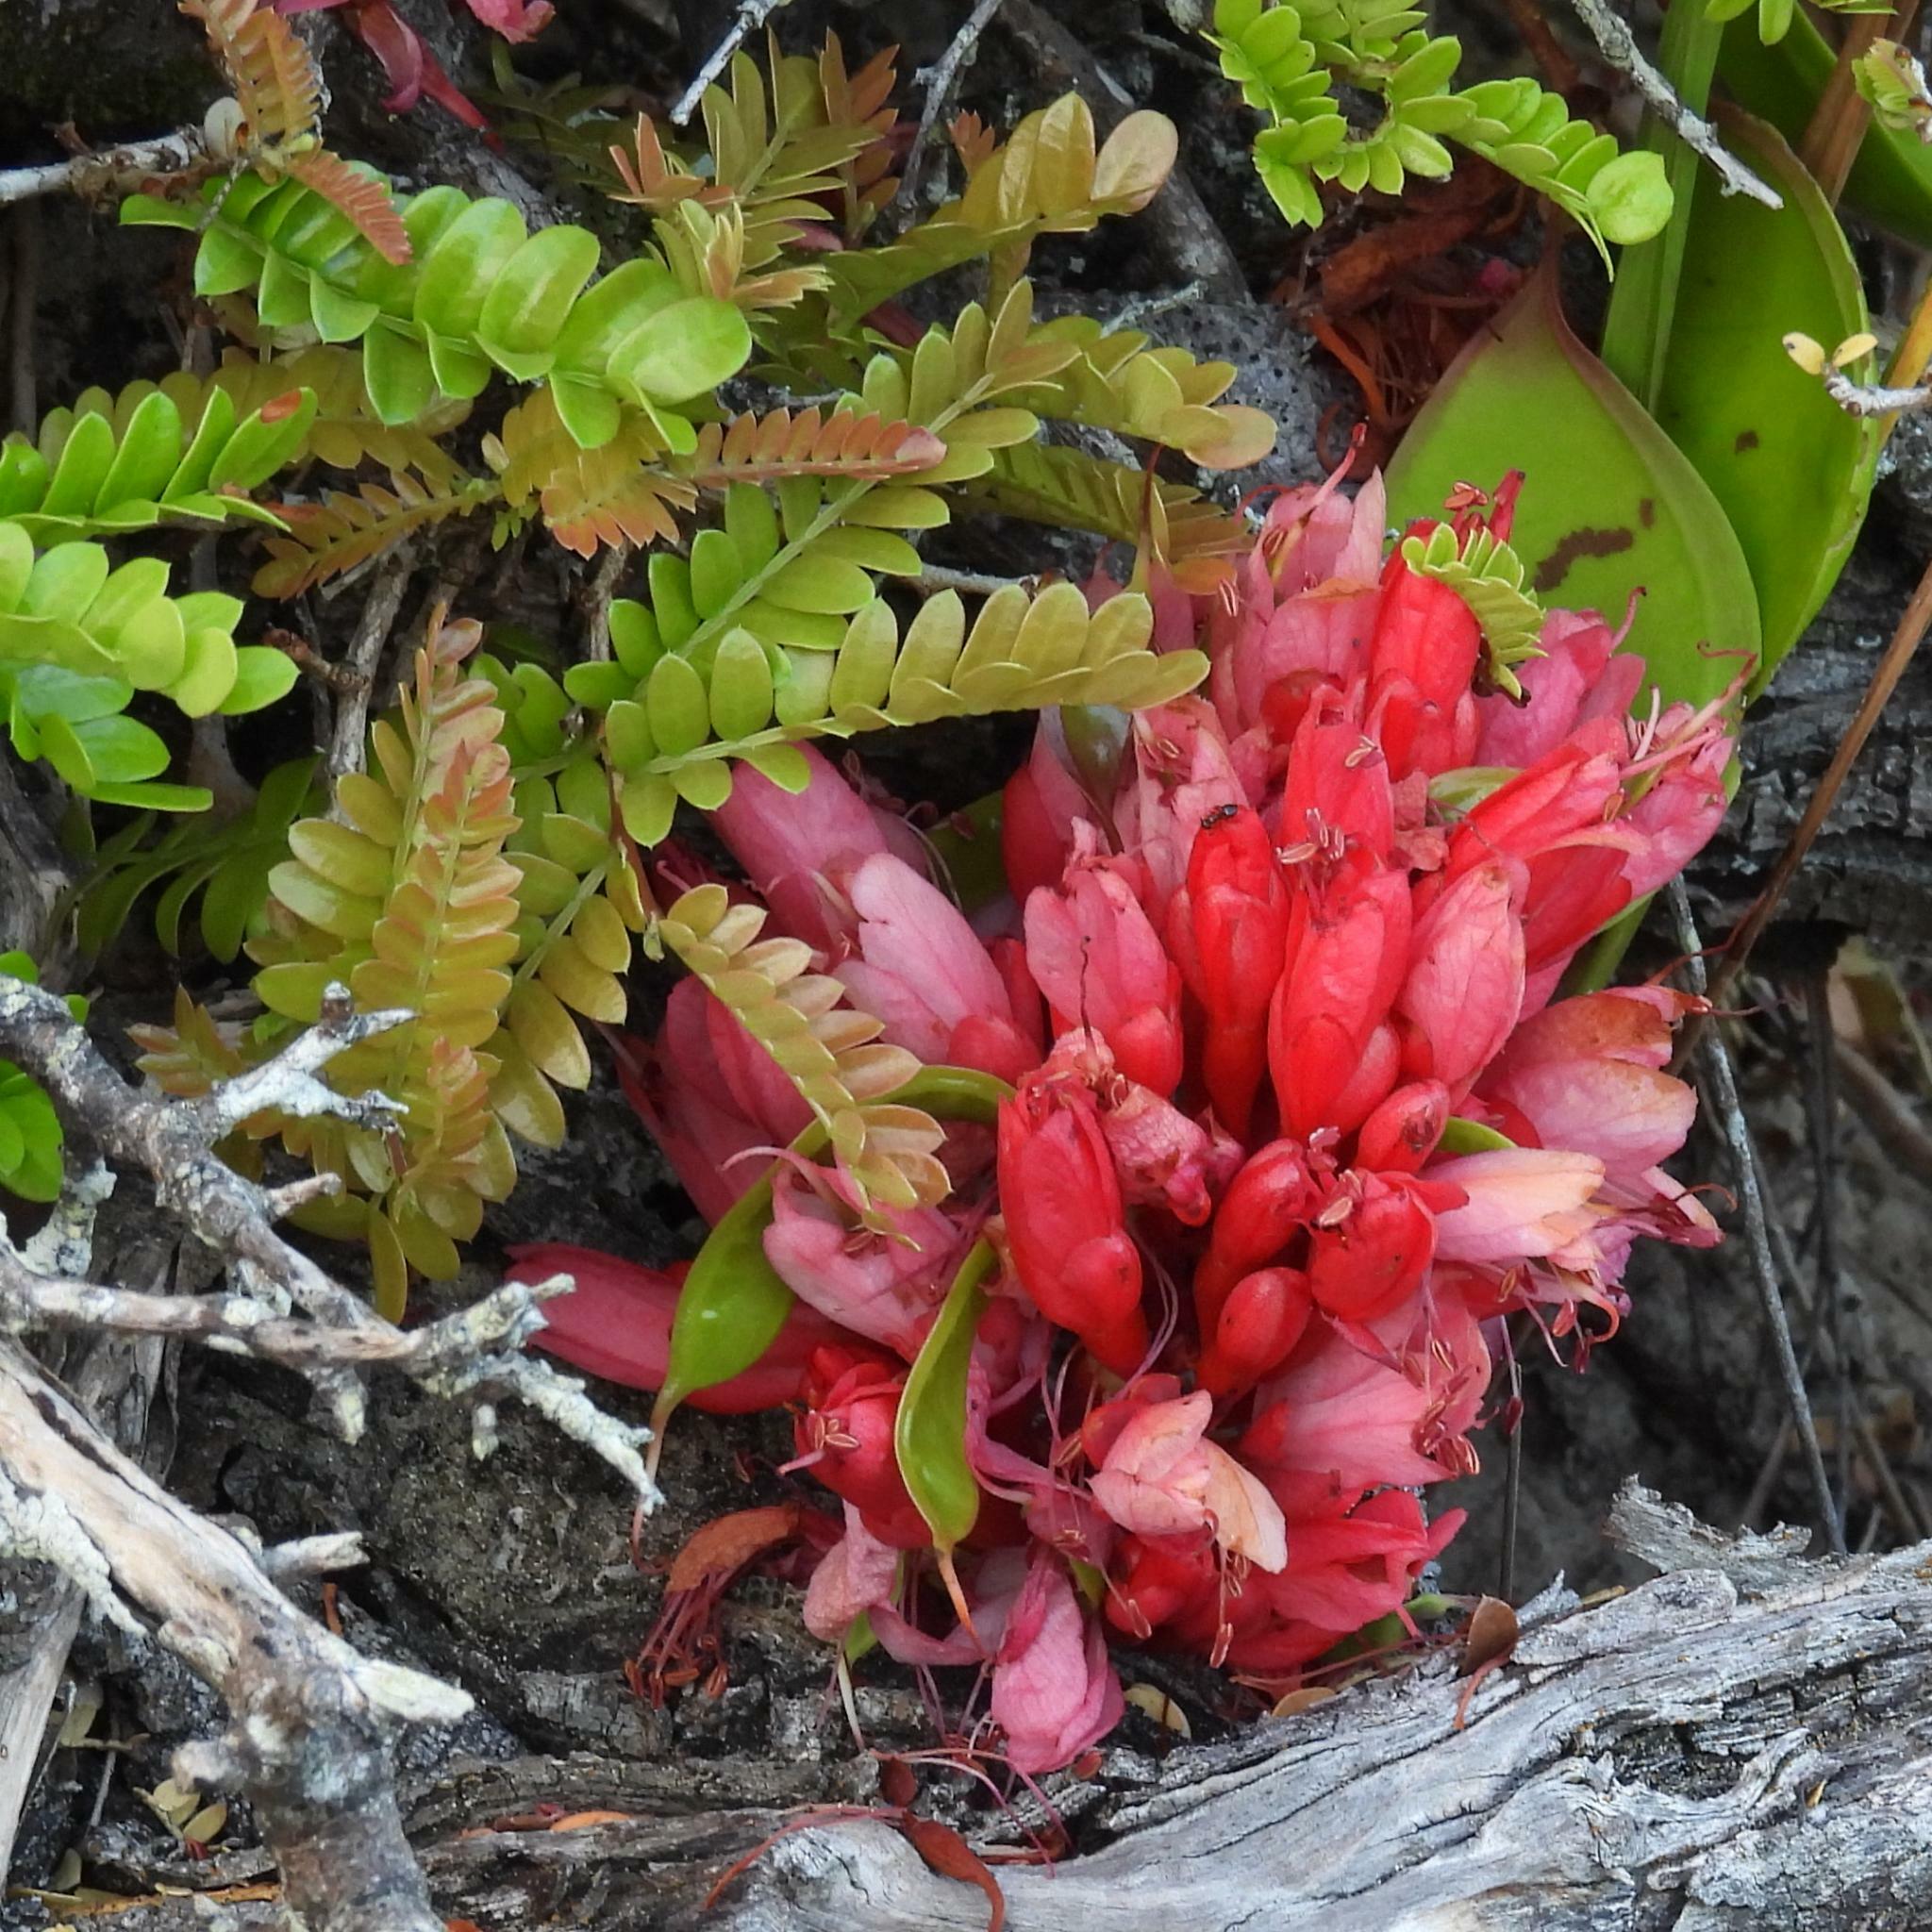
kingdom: Plantae
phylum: Tracheophyta
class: Magnoliopsida
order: Fabales
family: Fabaceae
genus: Schotia
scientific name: Schotia afra
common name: Hottentot's bean
